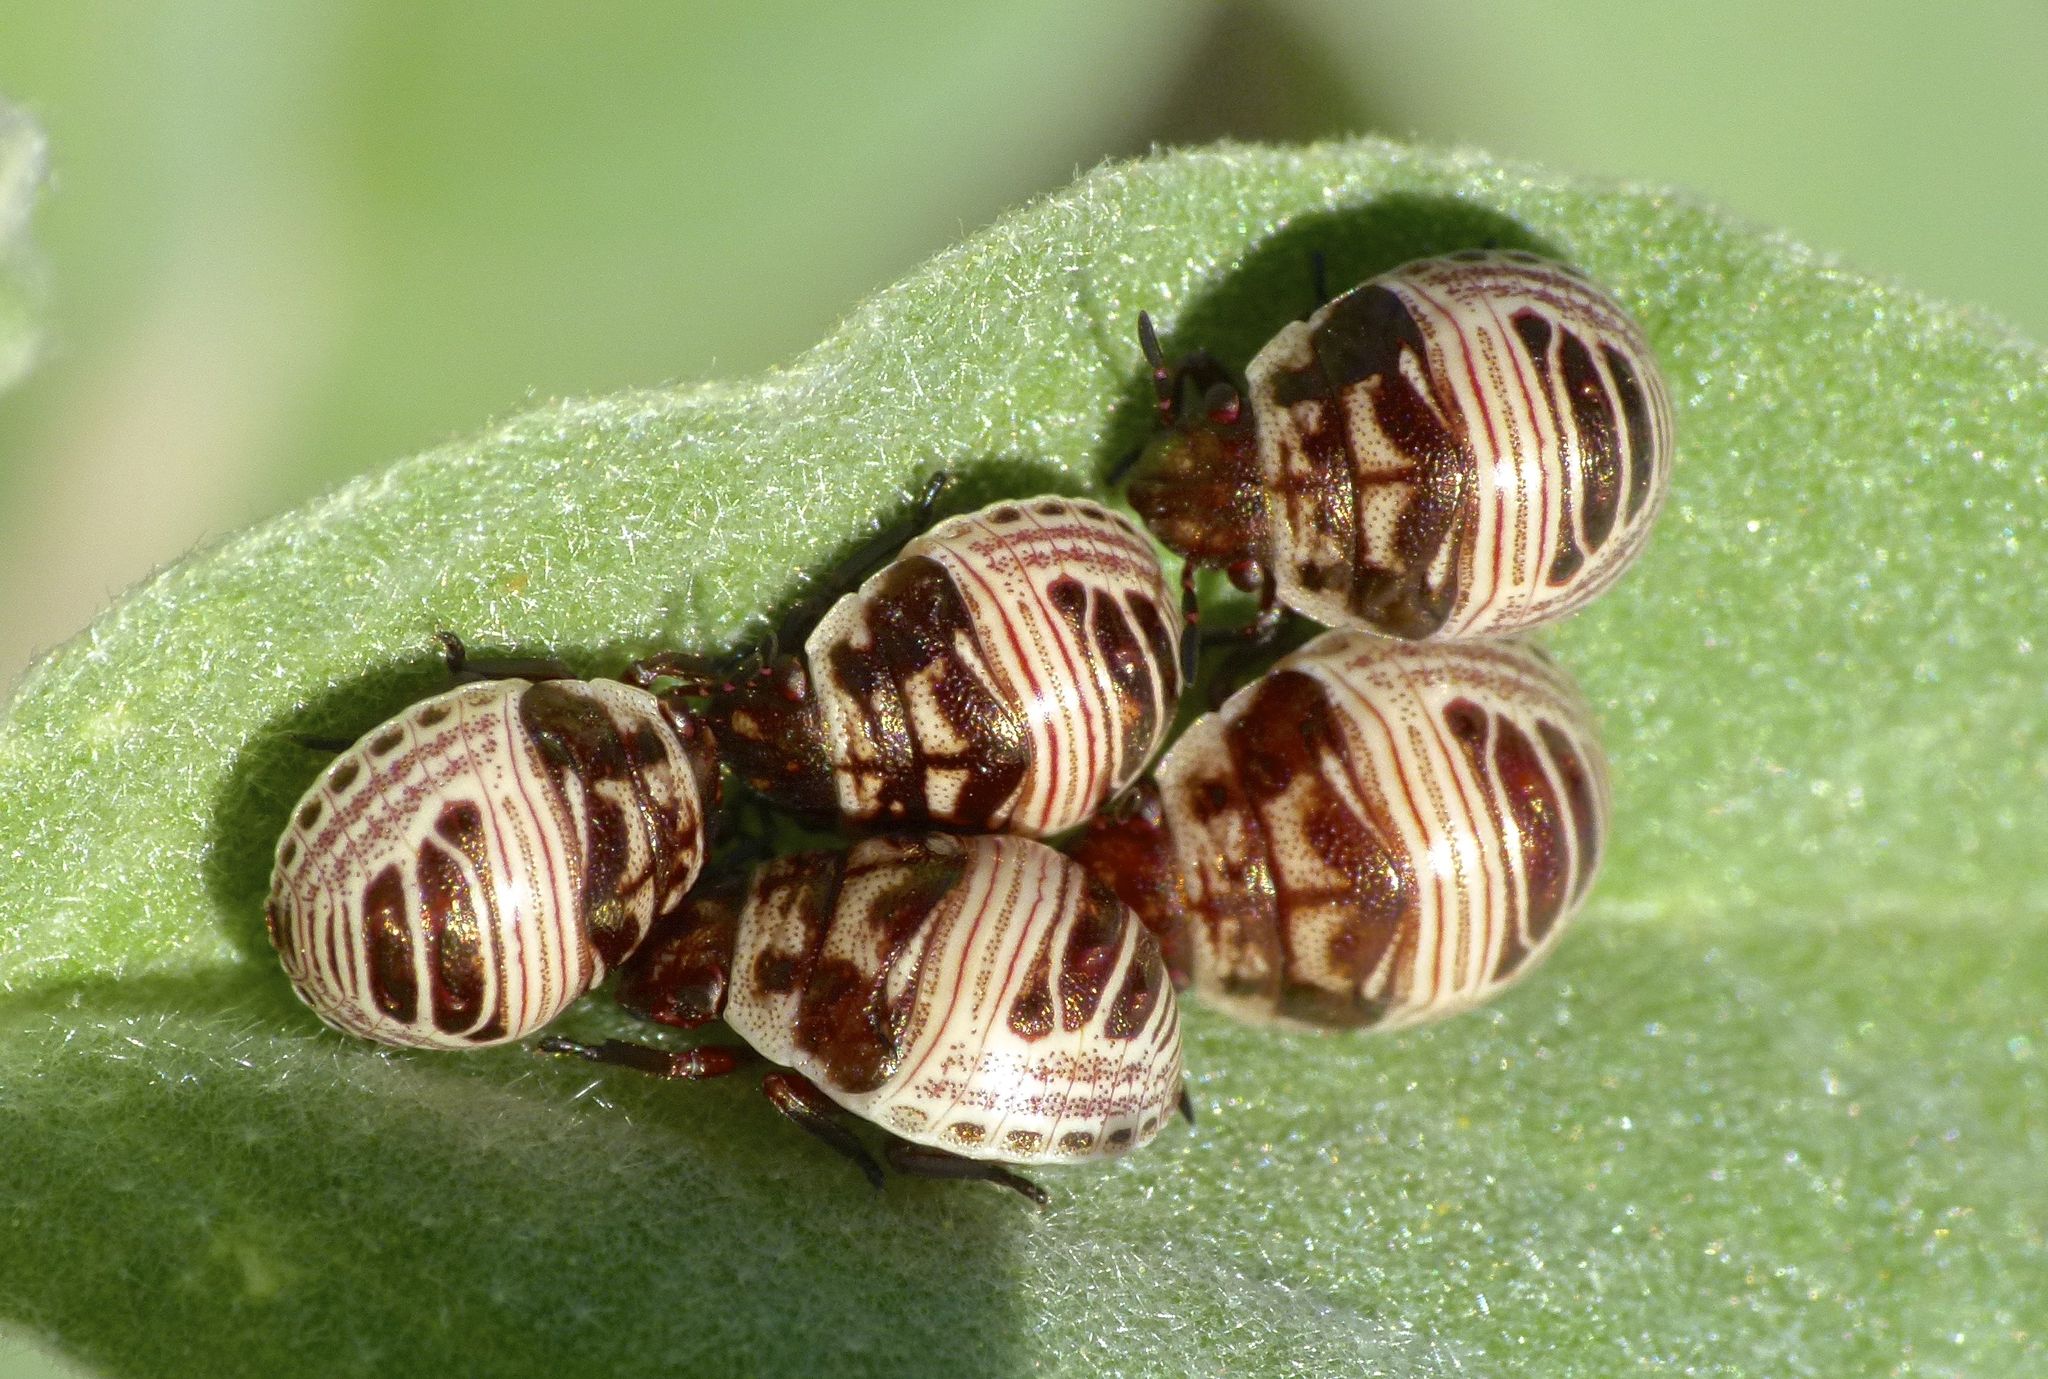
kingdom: Animalia
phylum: Arthropoda
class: Insecta
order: Hemiptera
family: Scutelleridae
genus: Orsilochides
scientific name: Orsilochides
